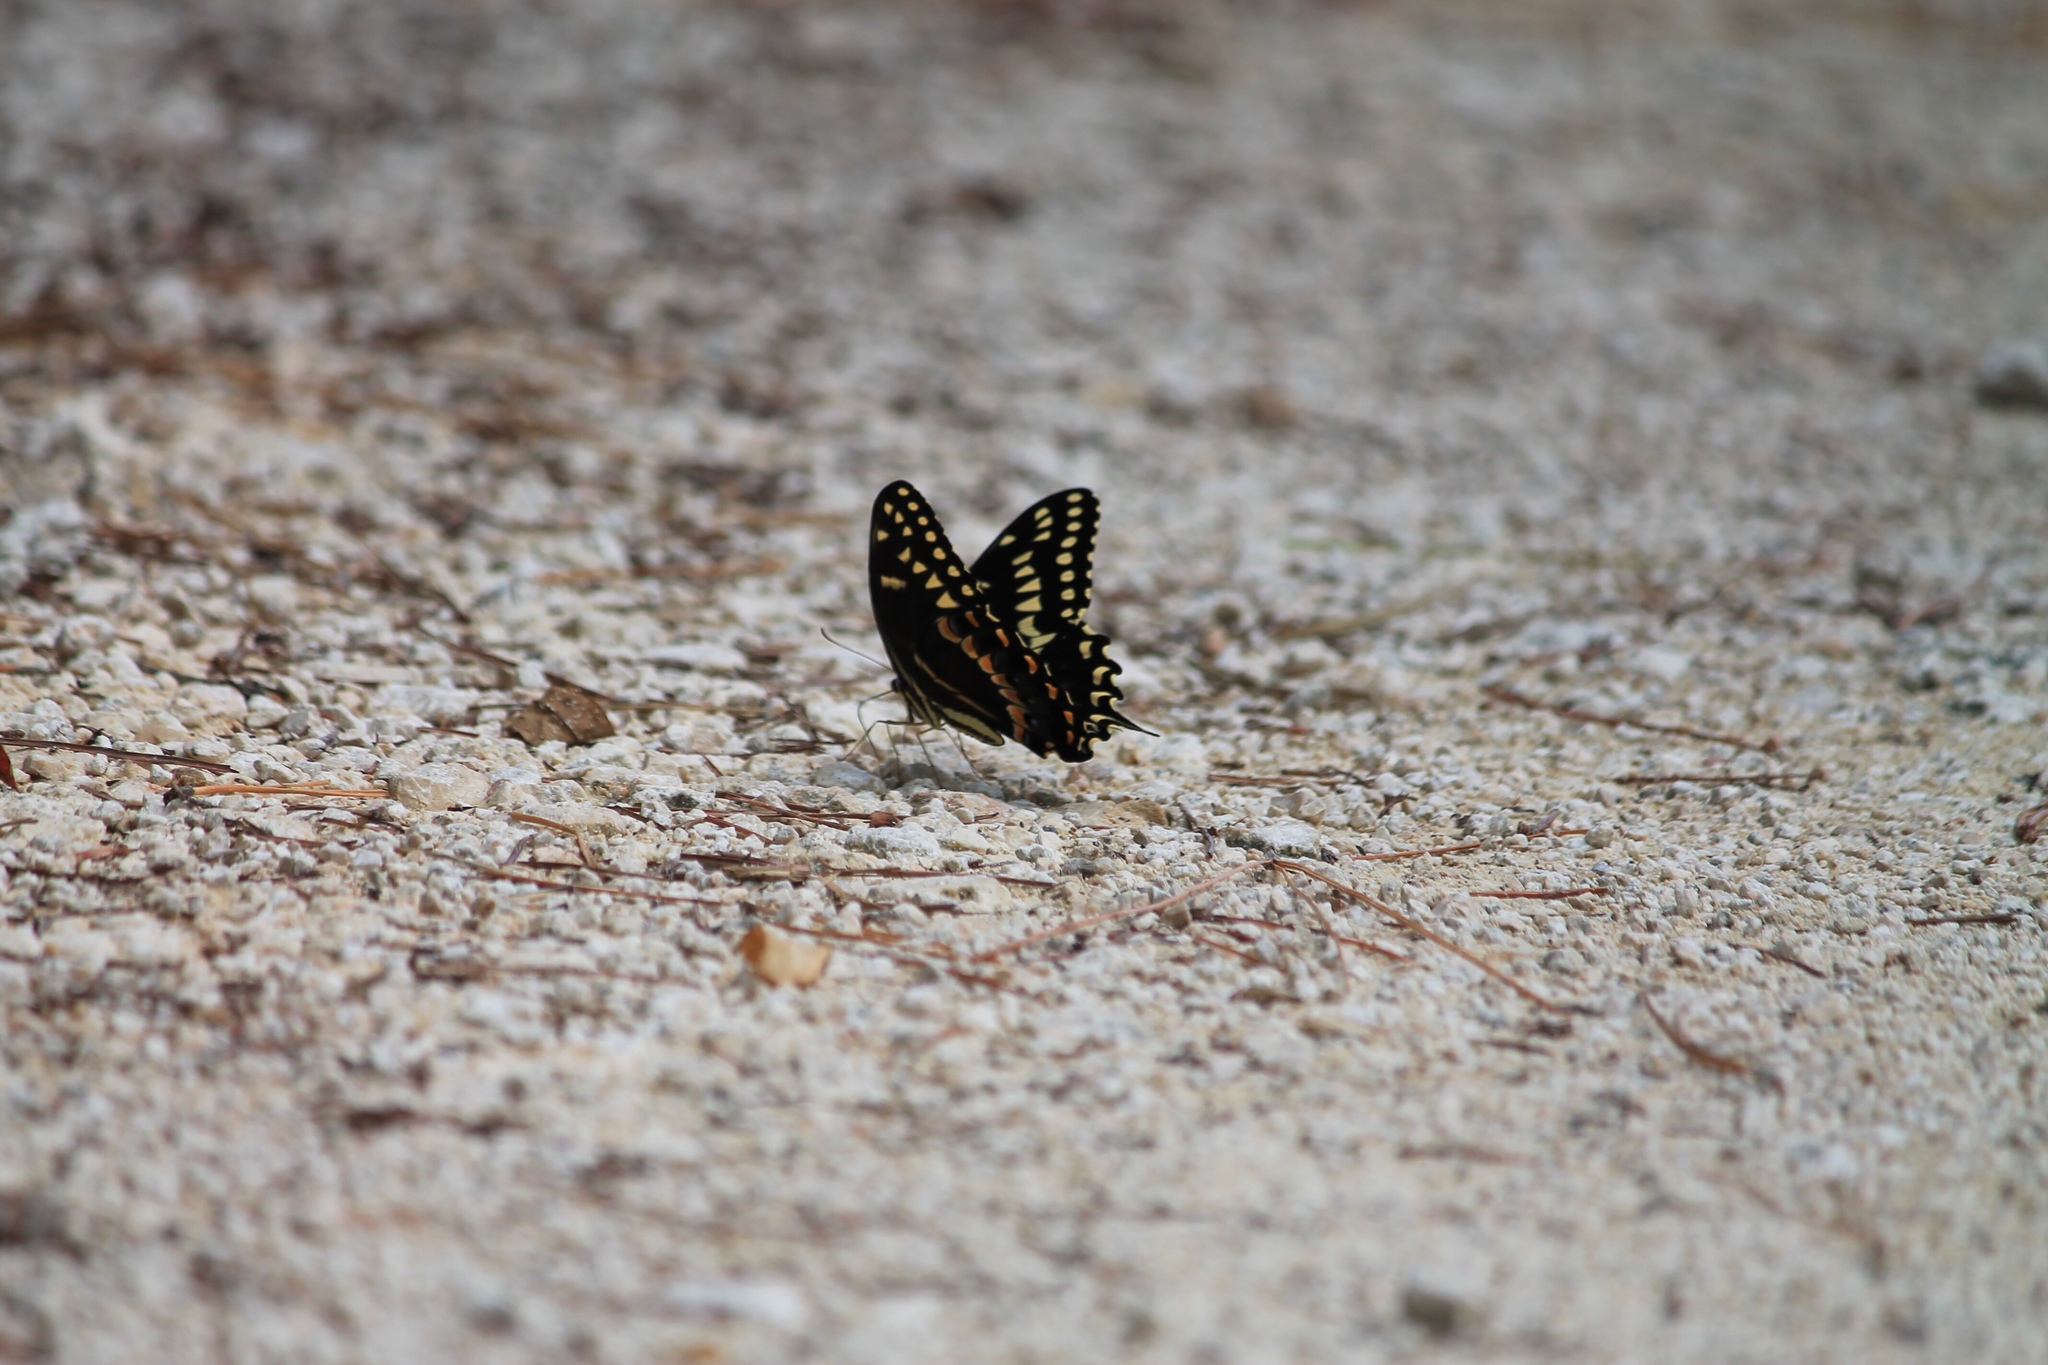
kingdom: Animalia
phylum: Arthropoda
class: Insecta
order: Lepidoptera
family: Papilionidae
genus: Papilio
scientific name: Papilio palamedes
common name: Palamedes swallowtail
